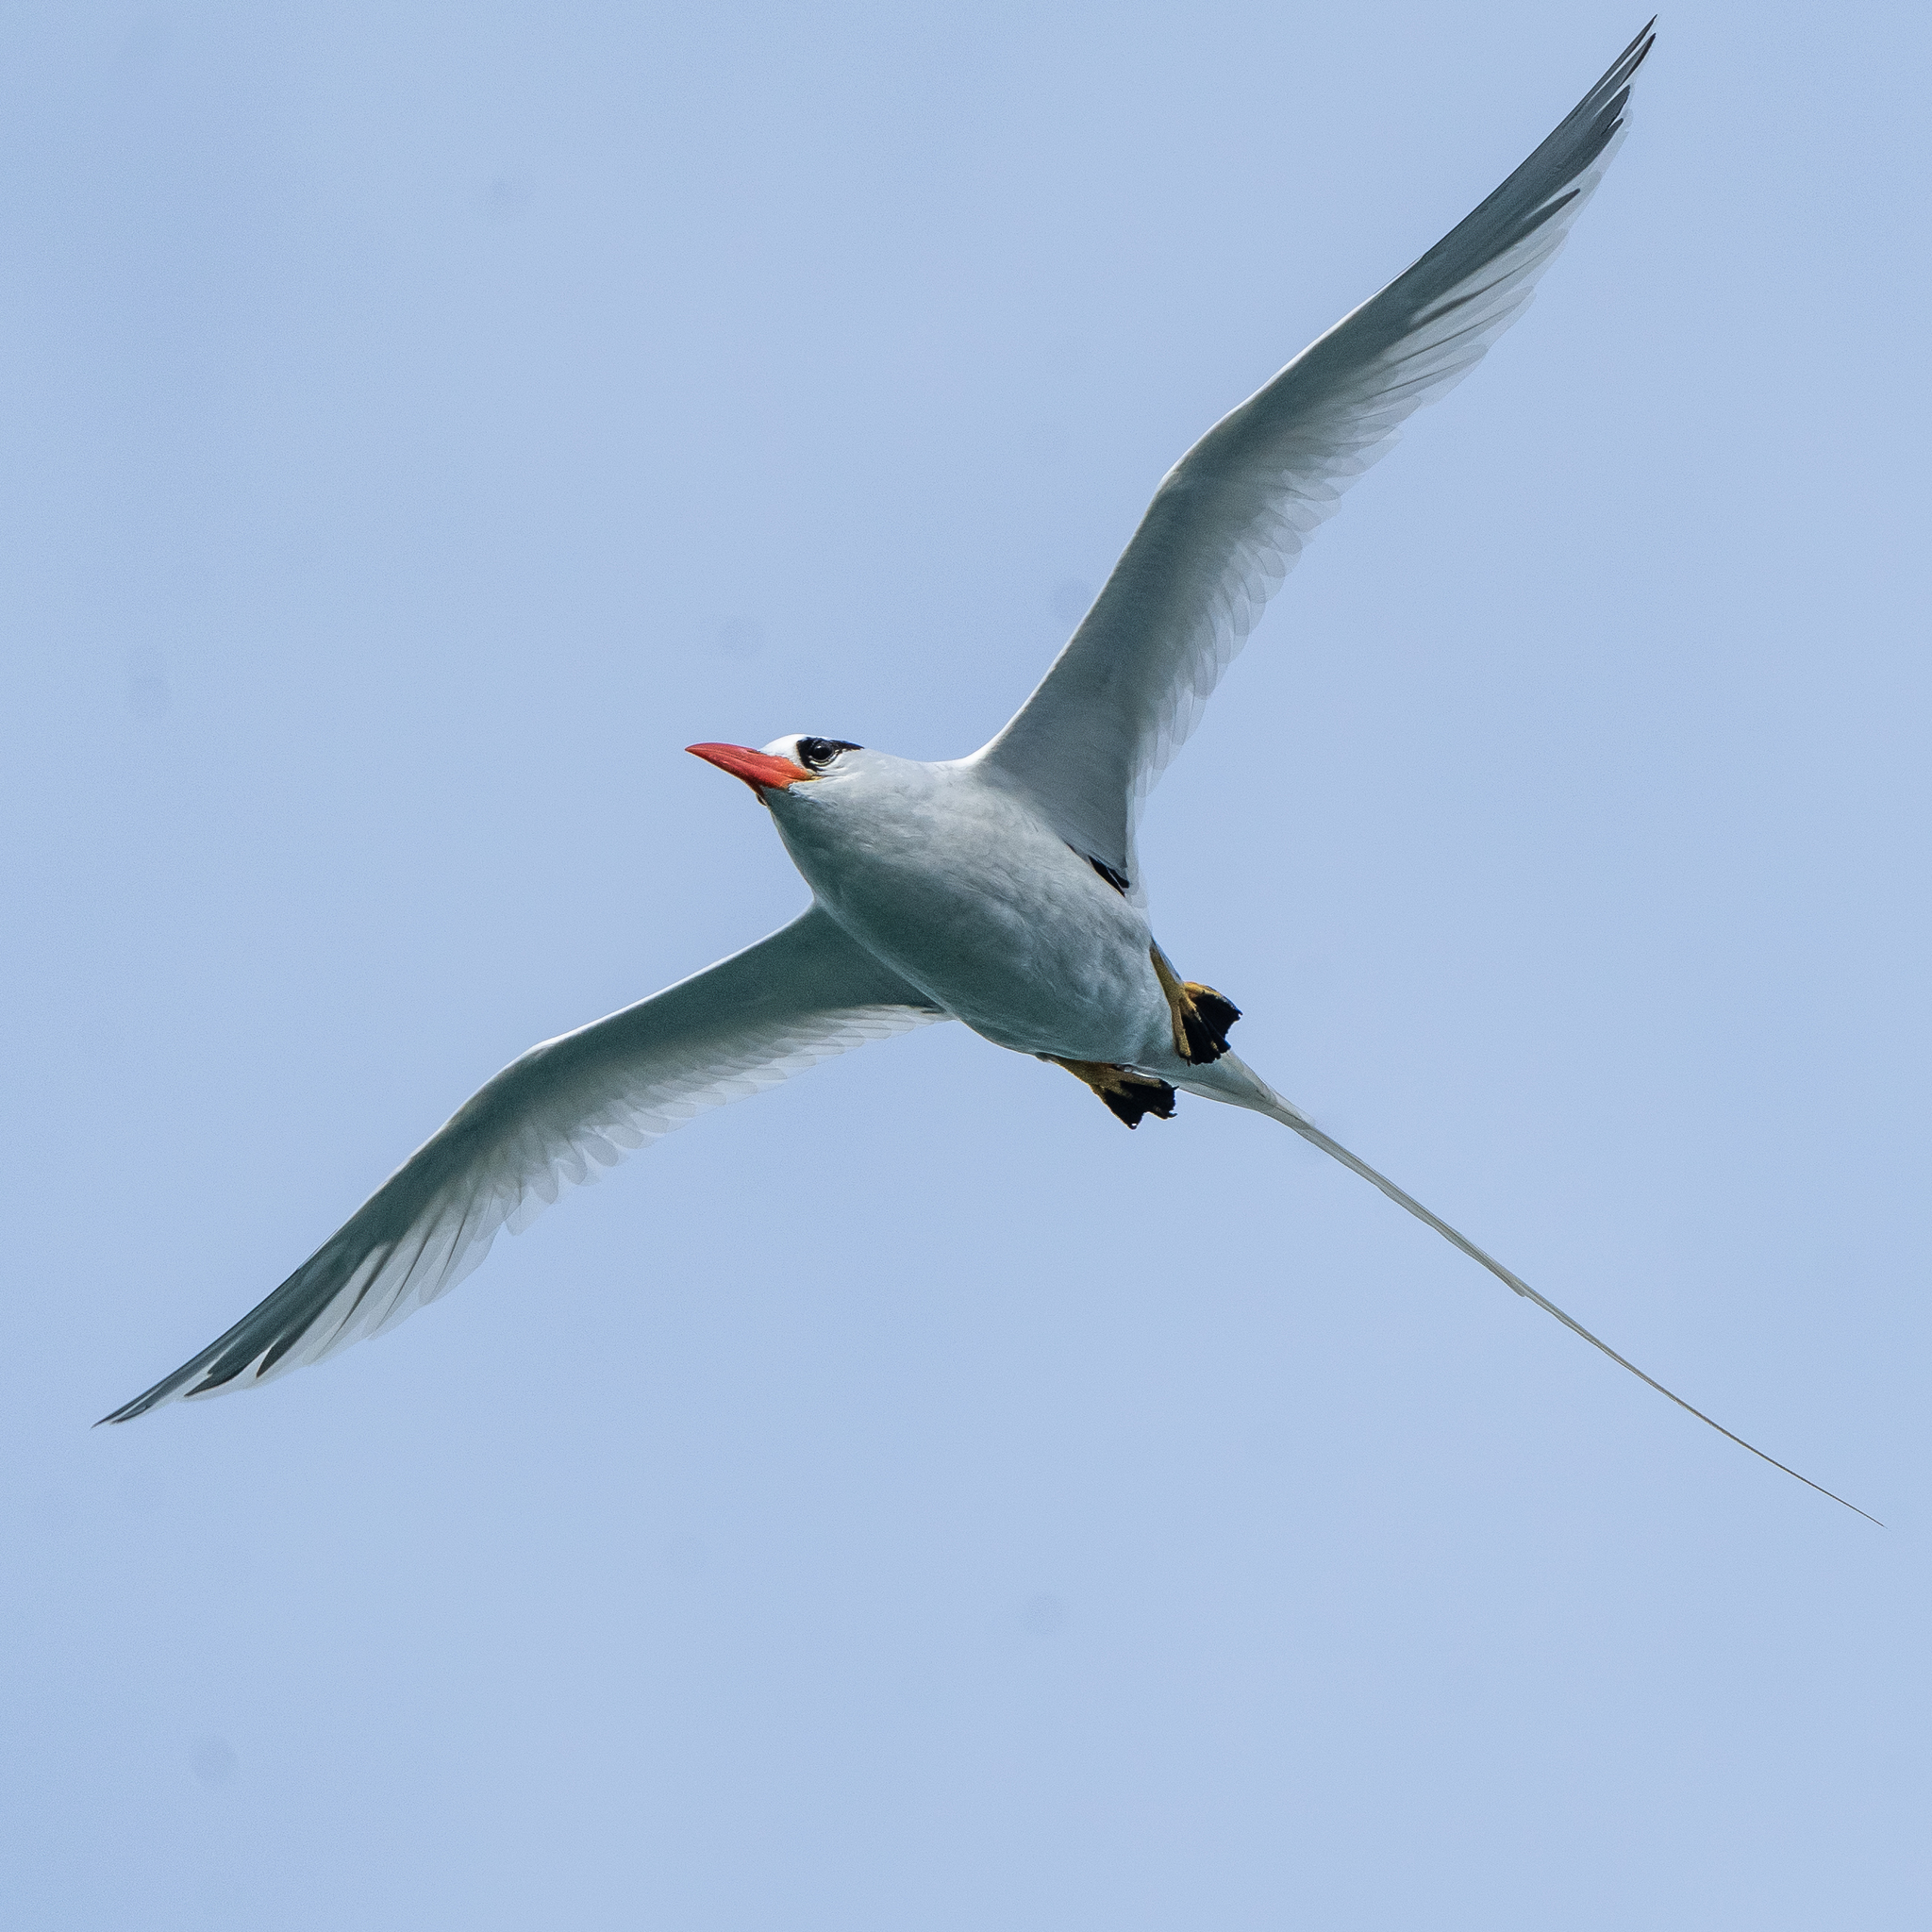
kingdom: Animalia
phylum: Chordata
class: Aves
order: Phaethontiformes
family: Phaethontidae
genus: Phaethon
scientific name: Phaethon aethereus
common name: Red-billed tropicbird
